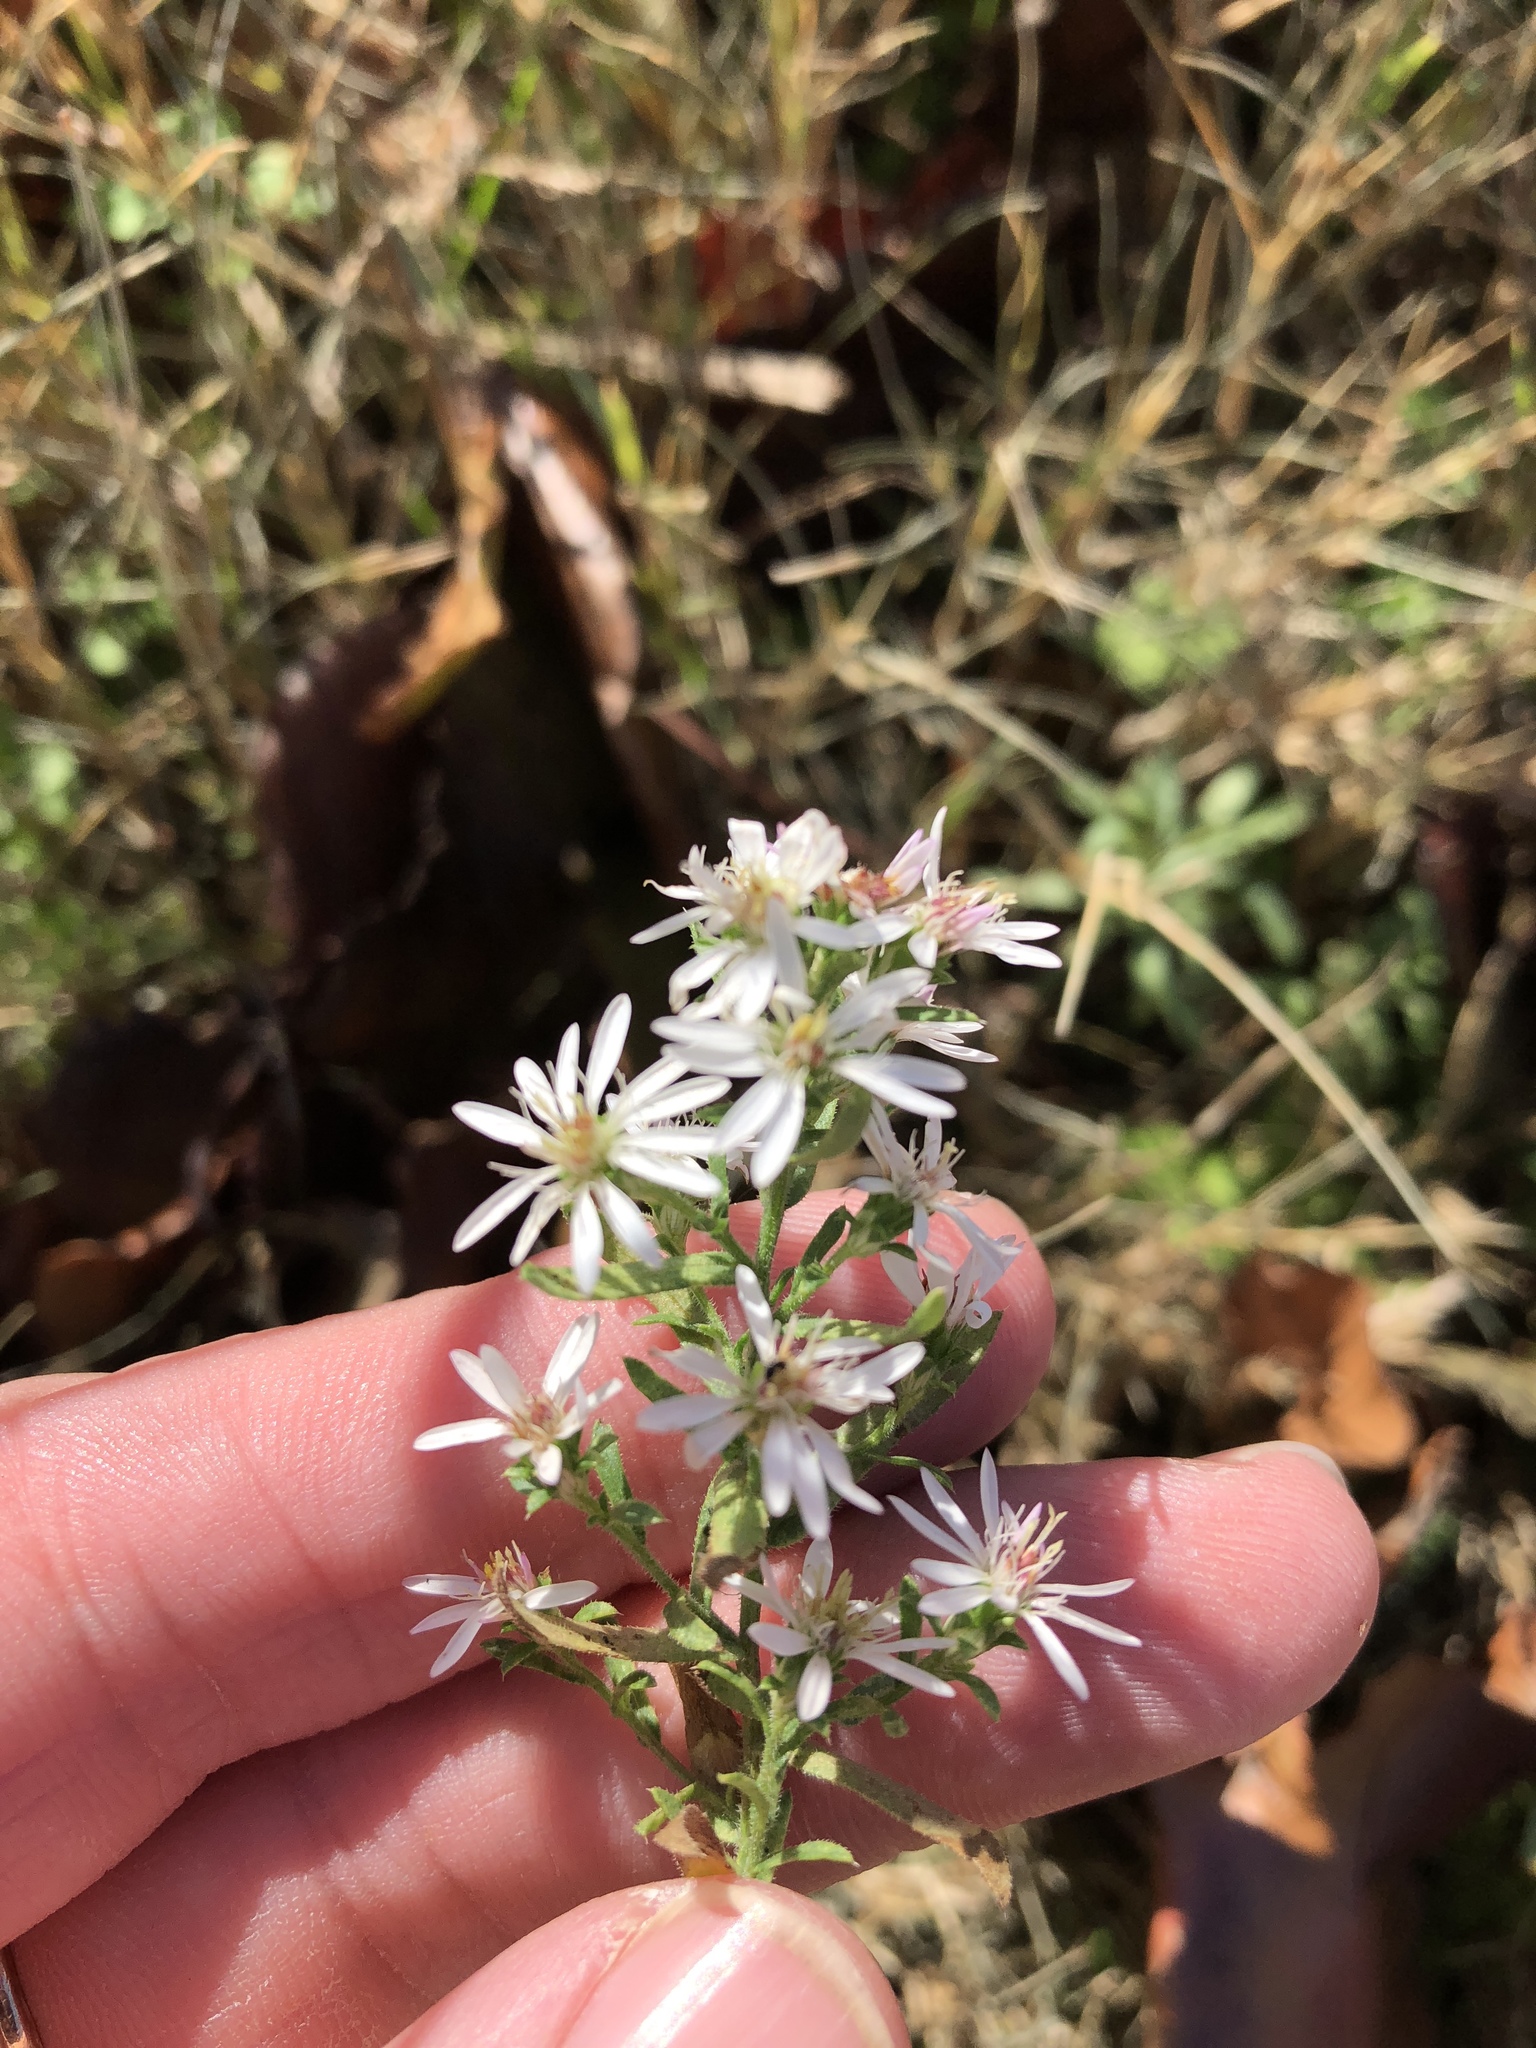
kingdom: Plantae
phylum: Tracheophyta
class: Magnoliopsida
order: Asterales
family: Asteraceae
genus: Symphyotrichum
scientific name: Symphyotrichum ericoides
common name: Heath aster
